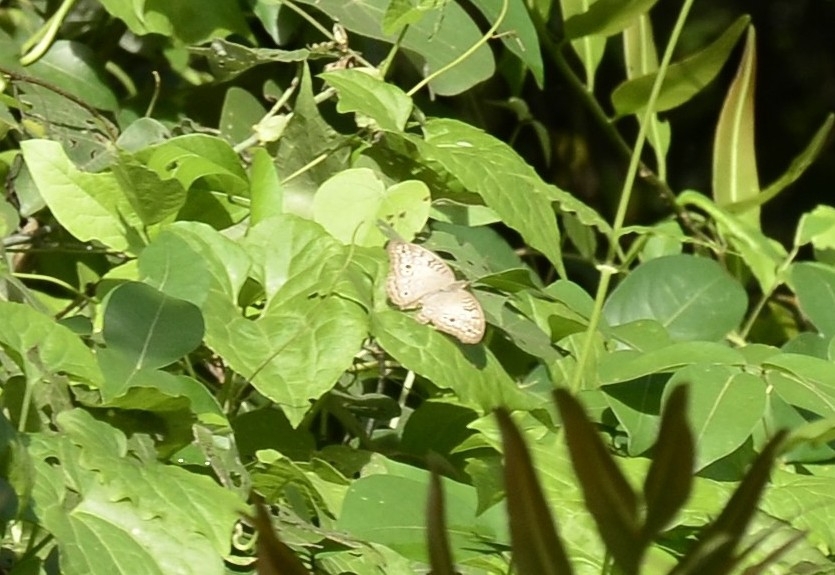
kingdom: Animalia
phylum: Arthropoda
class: Insecta
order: Lepidoptera
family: Nymphalidae
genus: Junonia
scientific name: Junonia atlites
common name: Grey pansy
